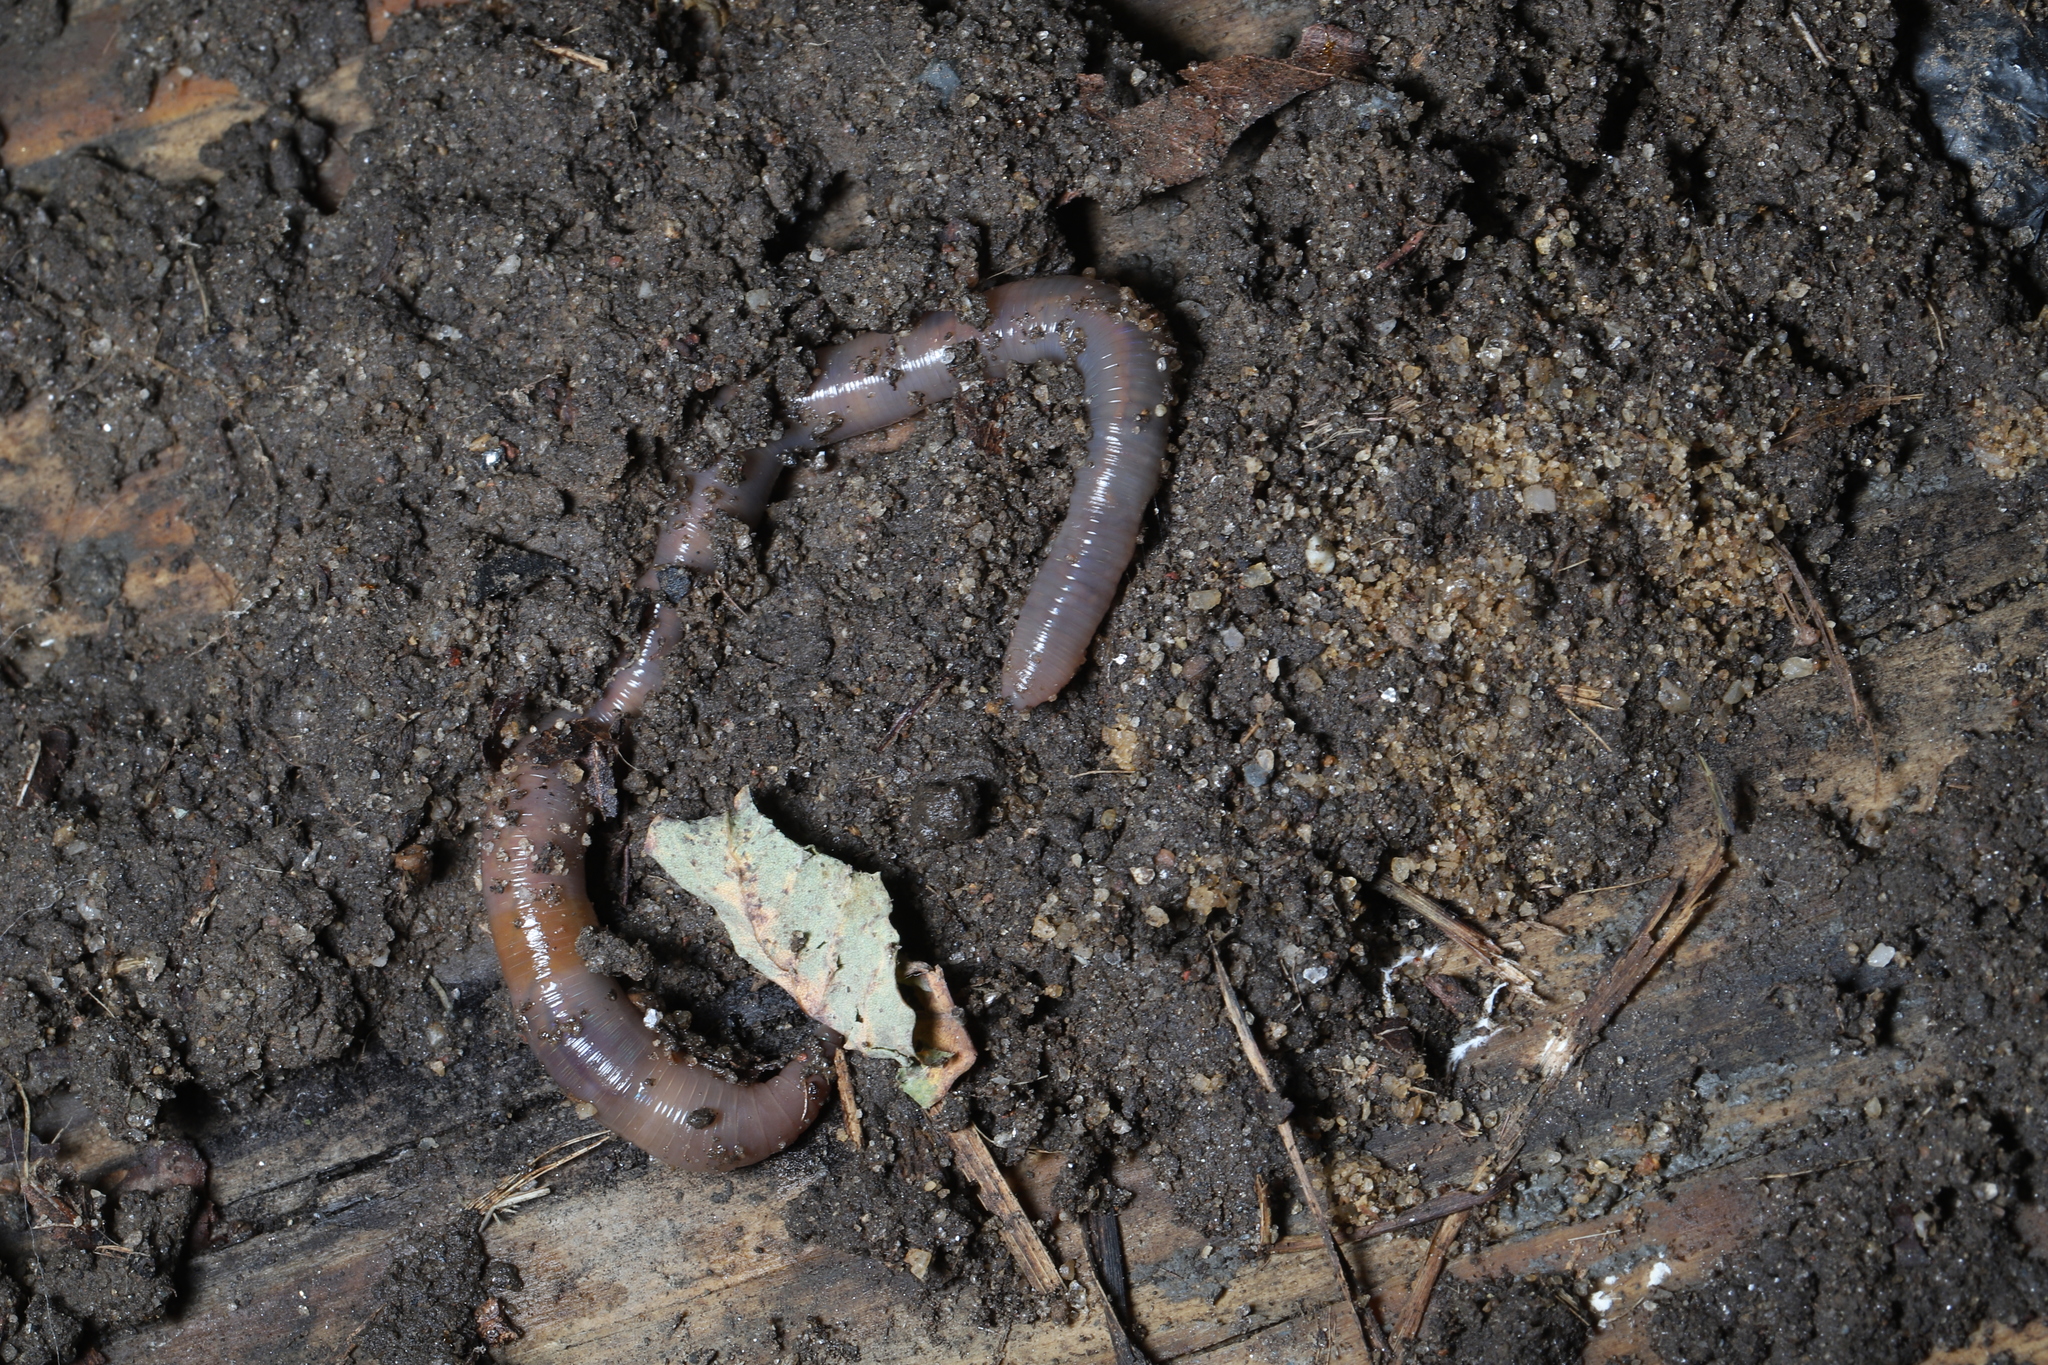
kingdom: Animalia
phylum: Annelida
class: Clitellata
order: Crassiclitellata
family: Lumbricidae
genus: Lumbricus
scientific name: Lumbricus terrestris
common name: Common earthworm
